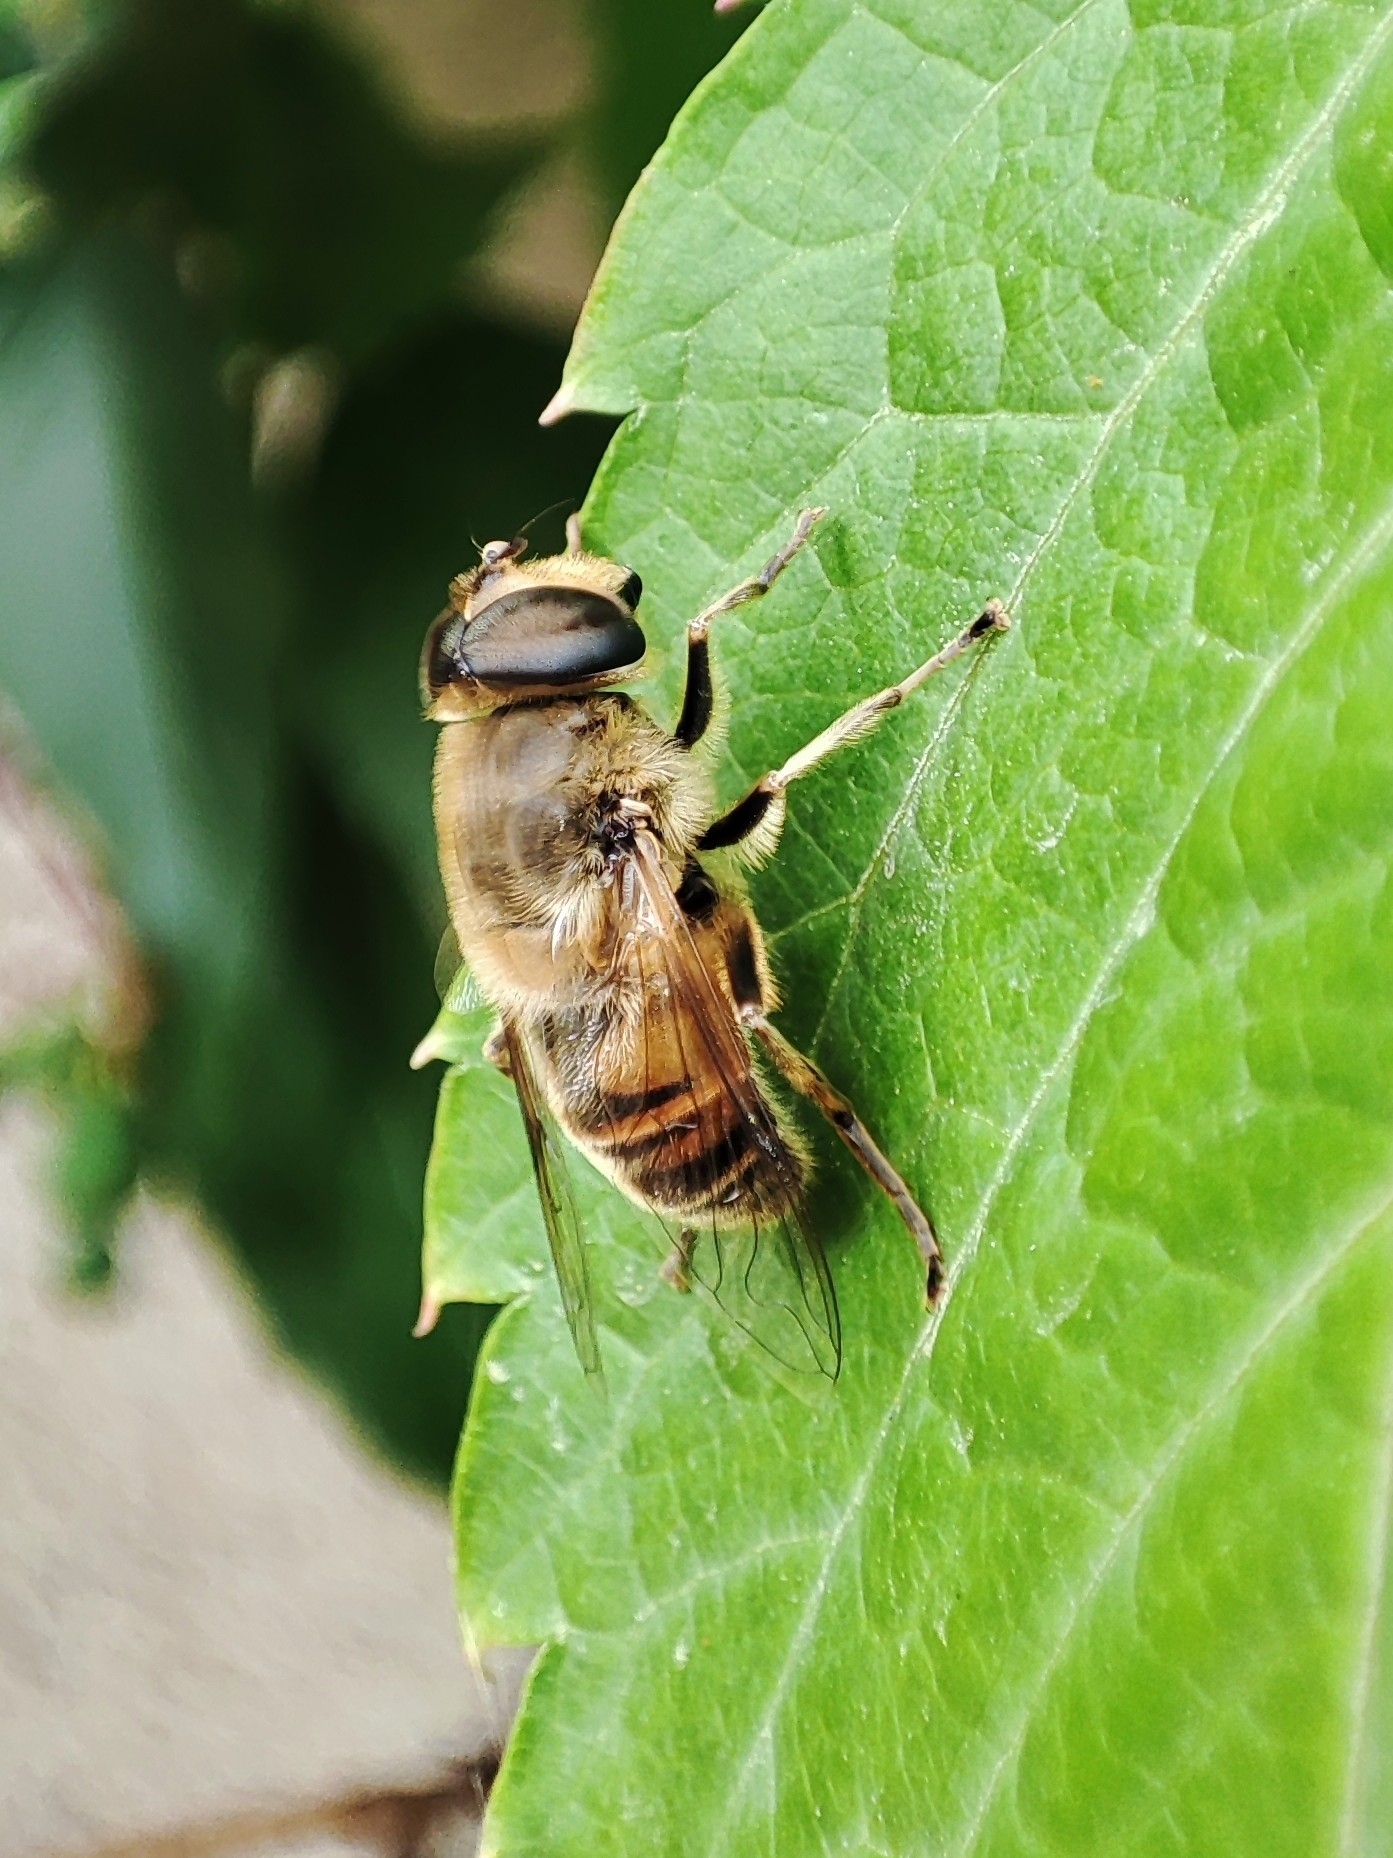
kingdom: Animalia
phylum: Arthropoda
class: Insecta
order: Diptera
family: Syrphidae
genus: Eristalis
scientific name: Eristalis tenax
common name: Drone fly
